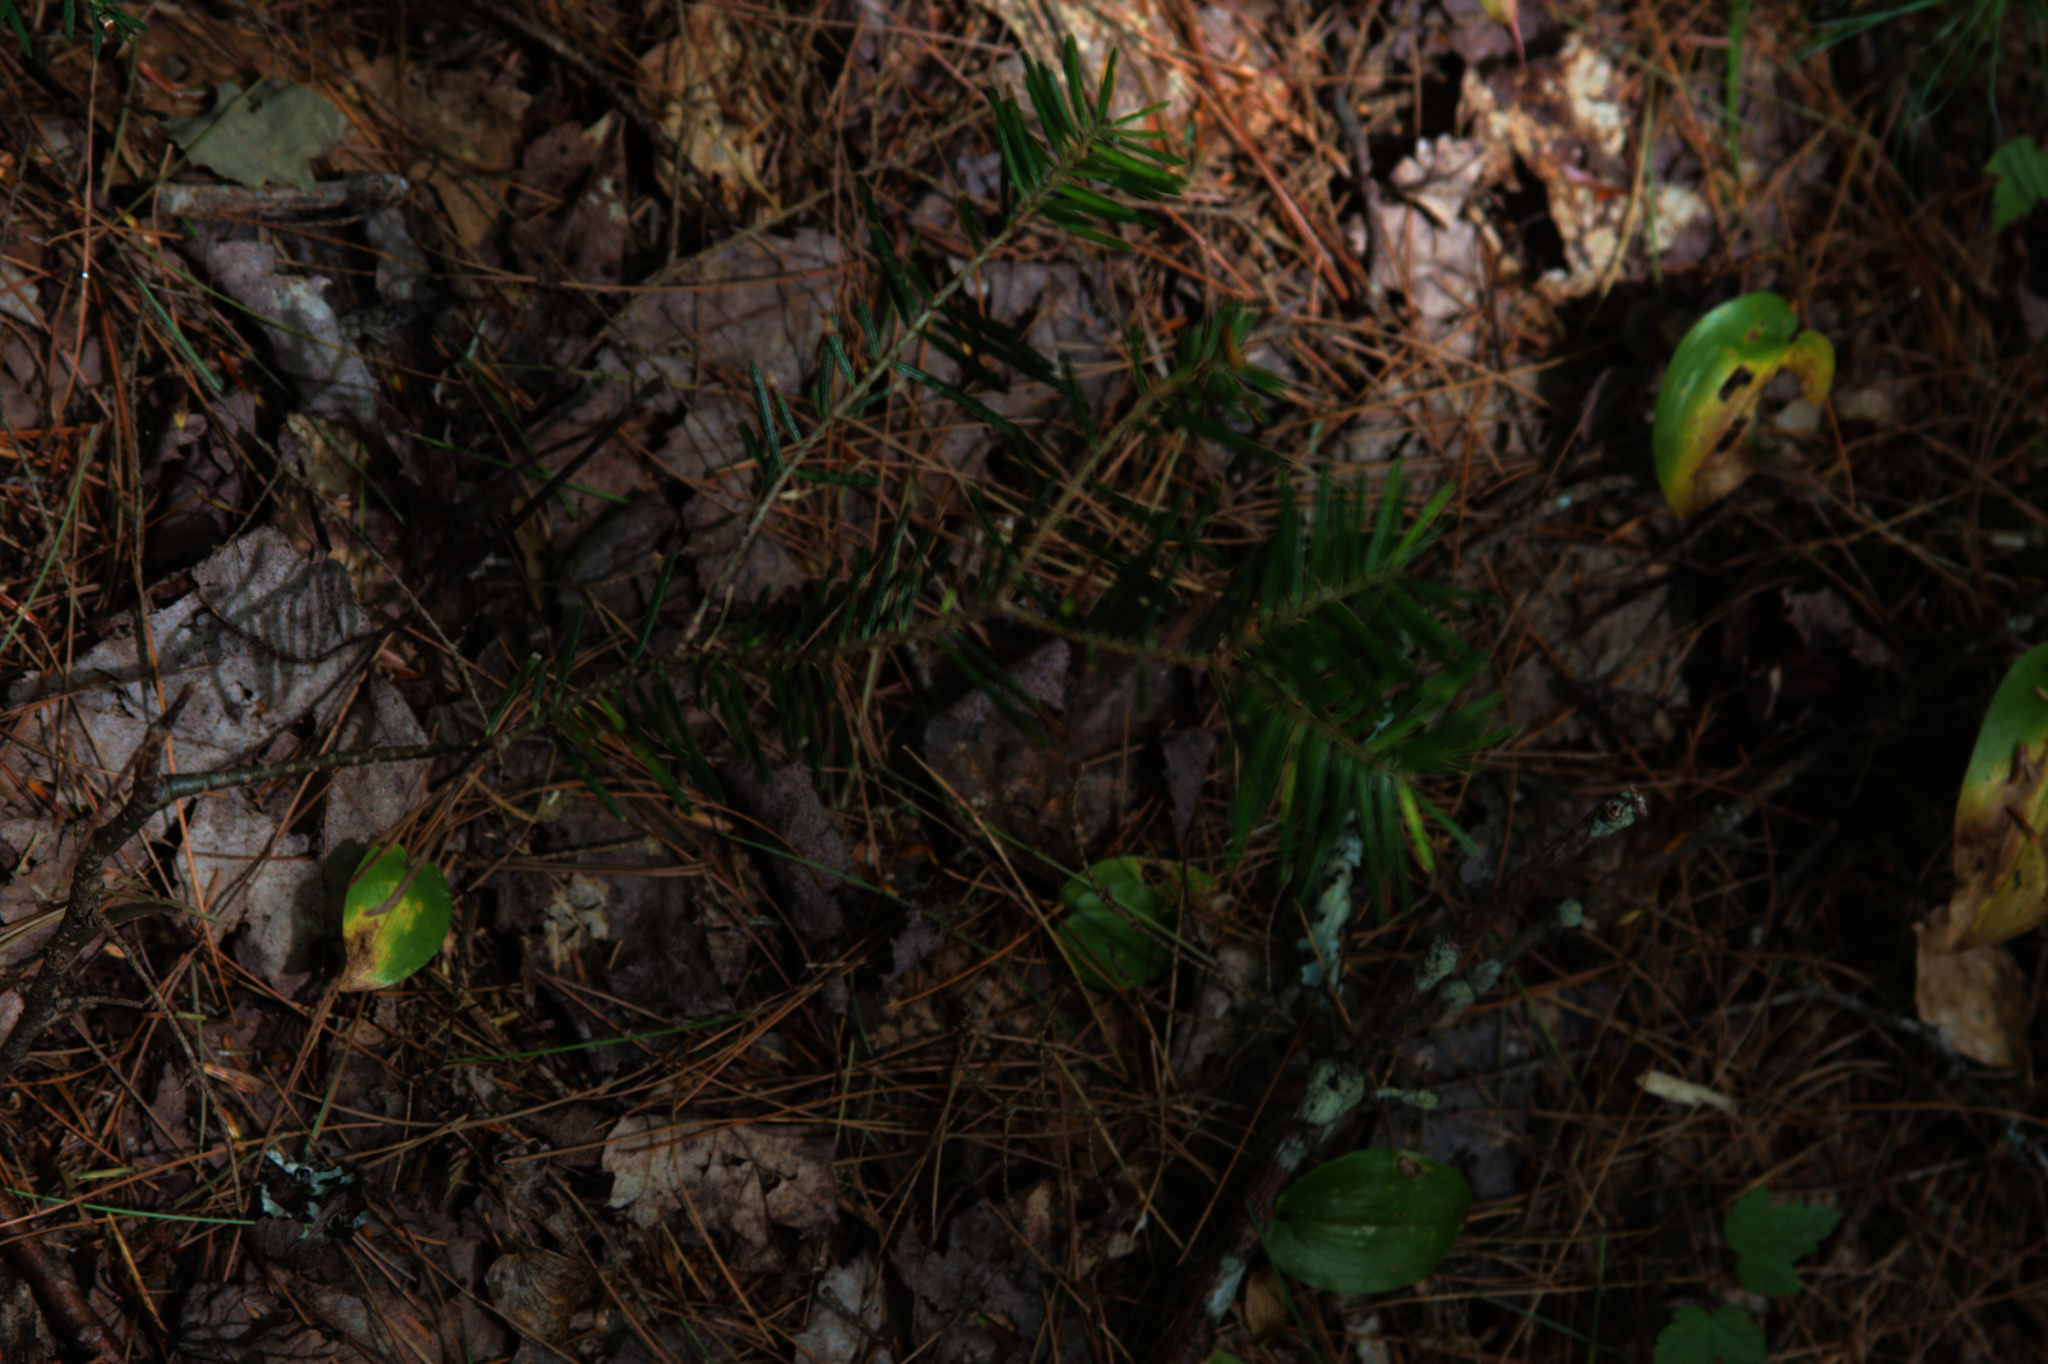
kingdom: Plantae
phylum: Tracheophyta
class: Pinopsida
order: Pinales
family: Pinaceae
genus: Abies
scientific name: Abies balsamea
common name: Balsam fir
